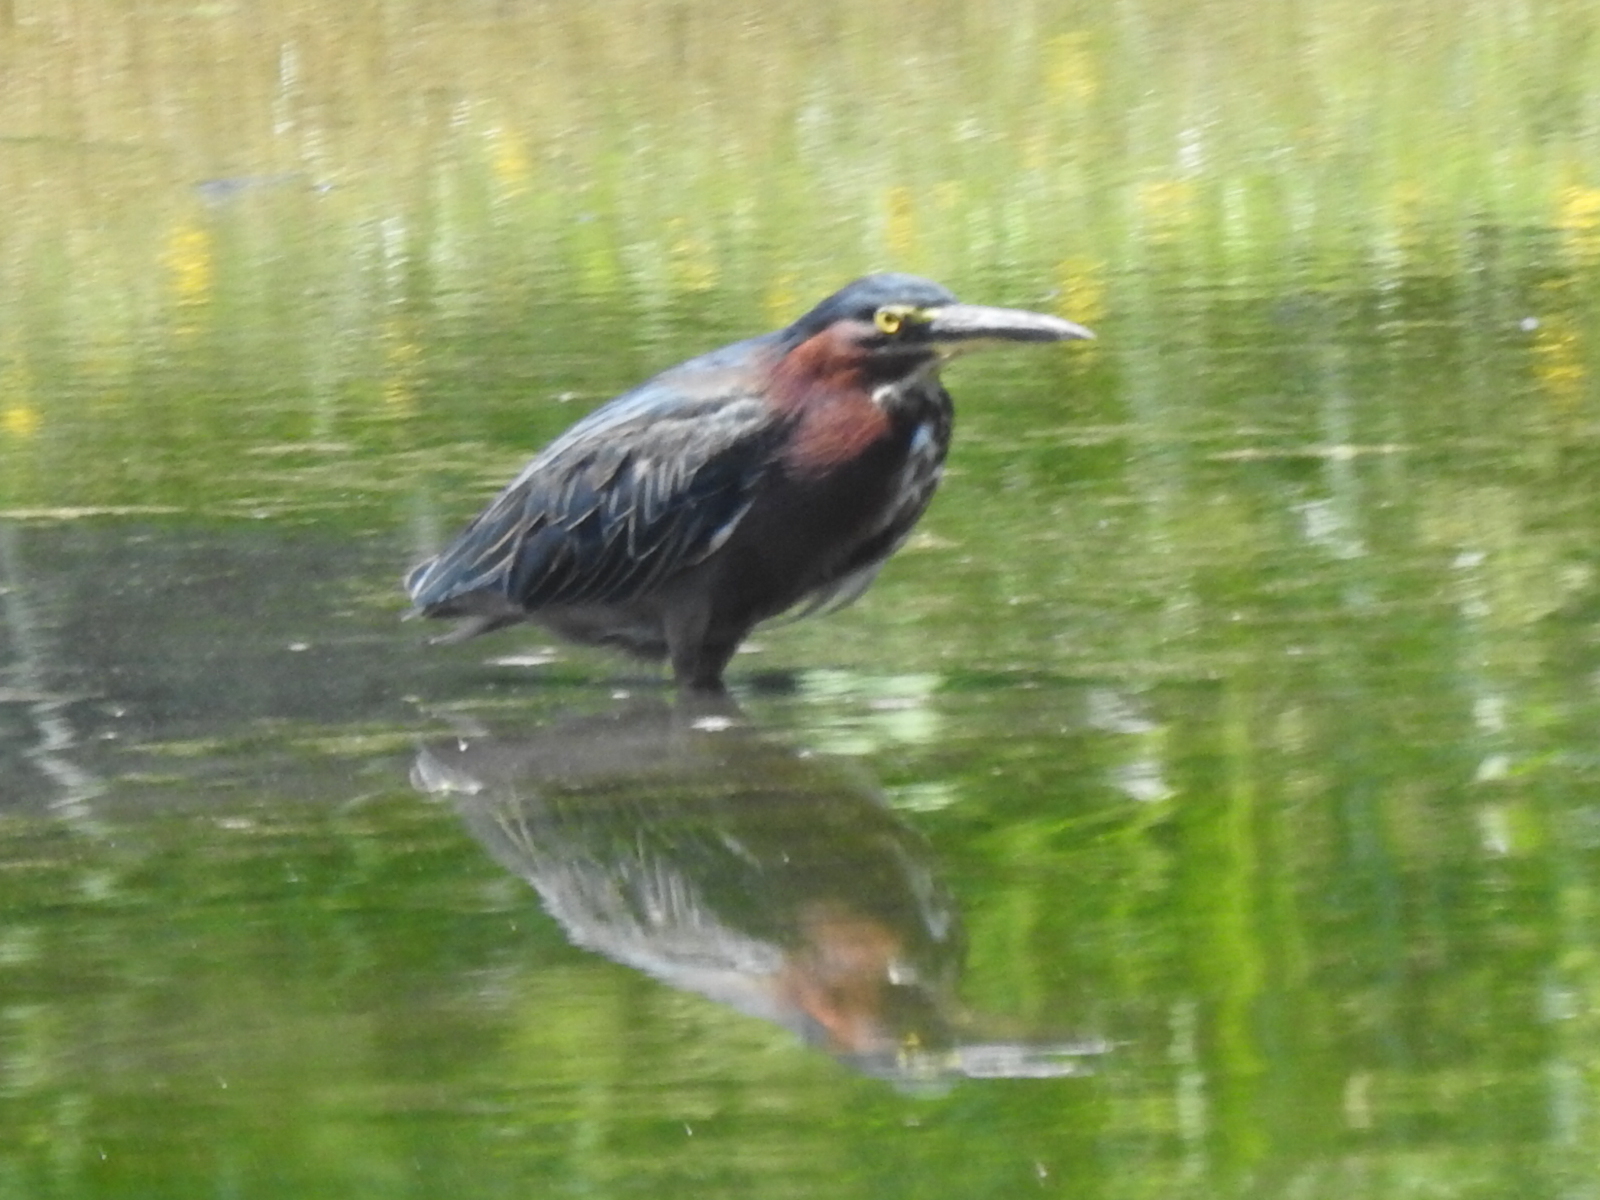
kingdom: Animalia
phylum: Chordata
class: Aves
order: Pelecaniformes
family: Ardeidae
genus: Butorides
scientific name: Butorides virescens
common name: Green heron
